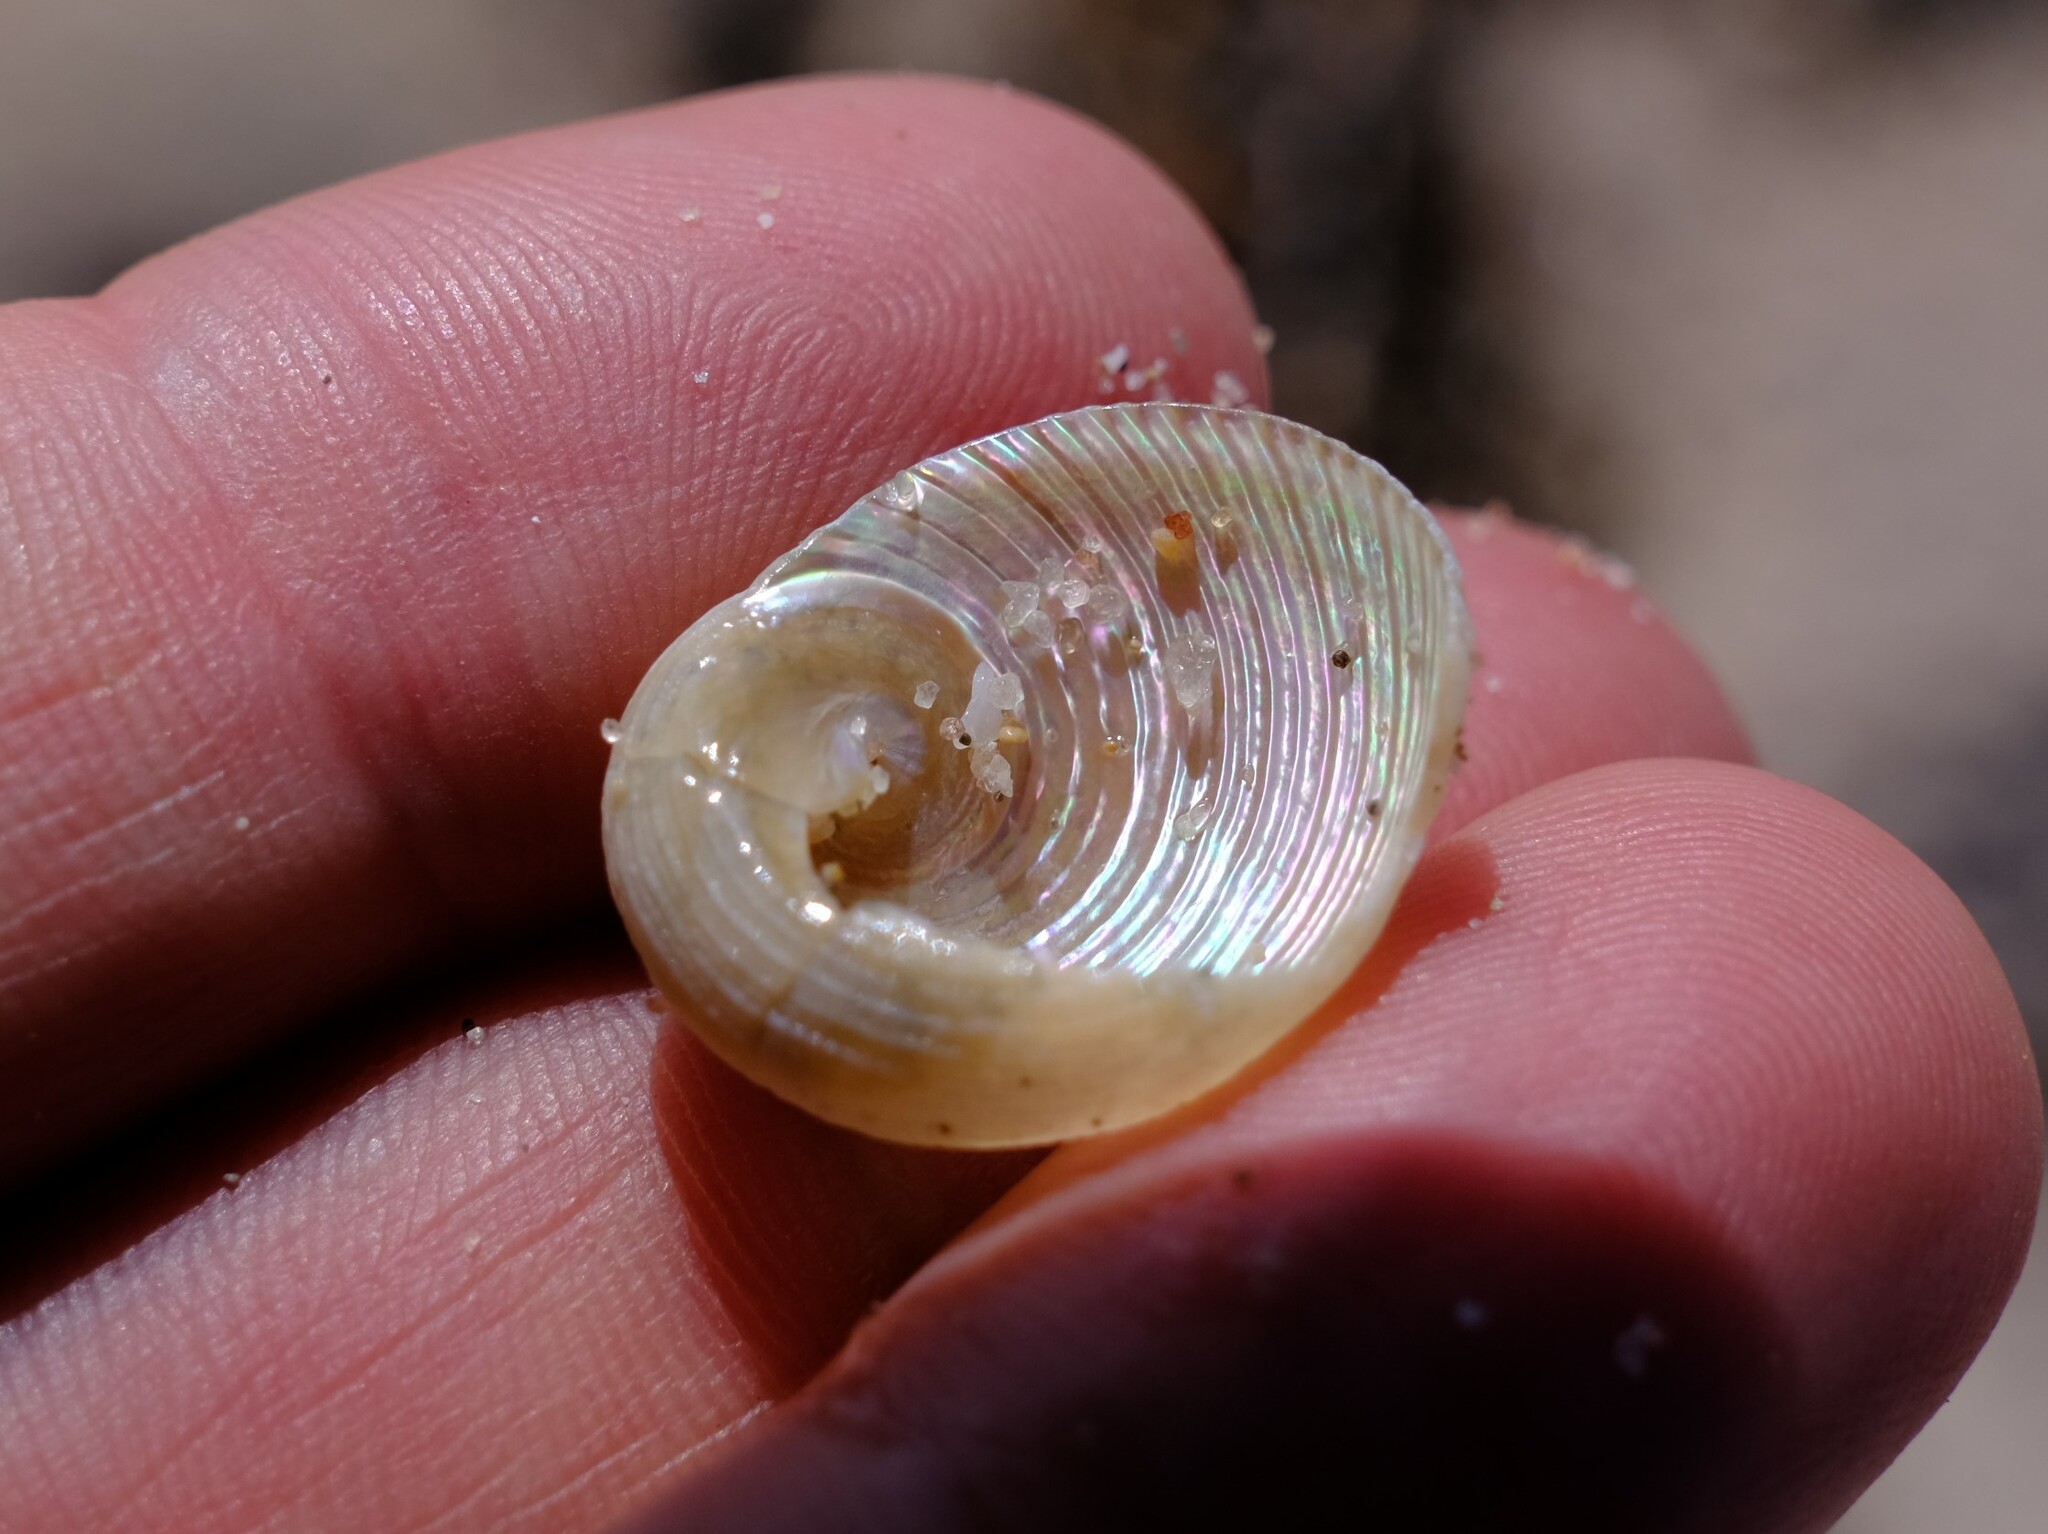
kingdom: Animalia
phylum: Mollusca
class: Gastropoda
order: Seguenziida
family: Chilodontaidae
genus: Granata
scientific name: Granata imbricata
